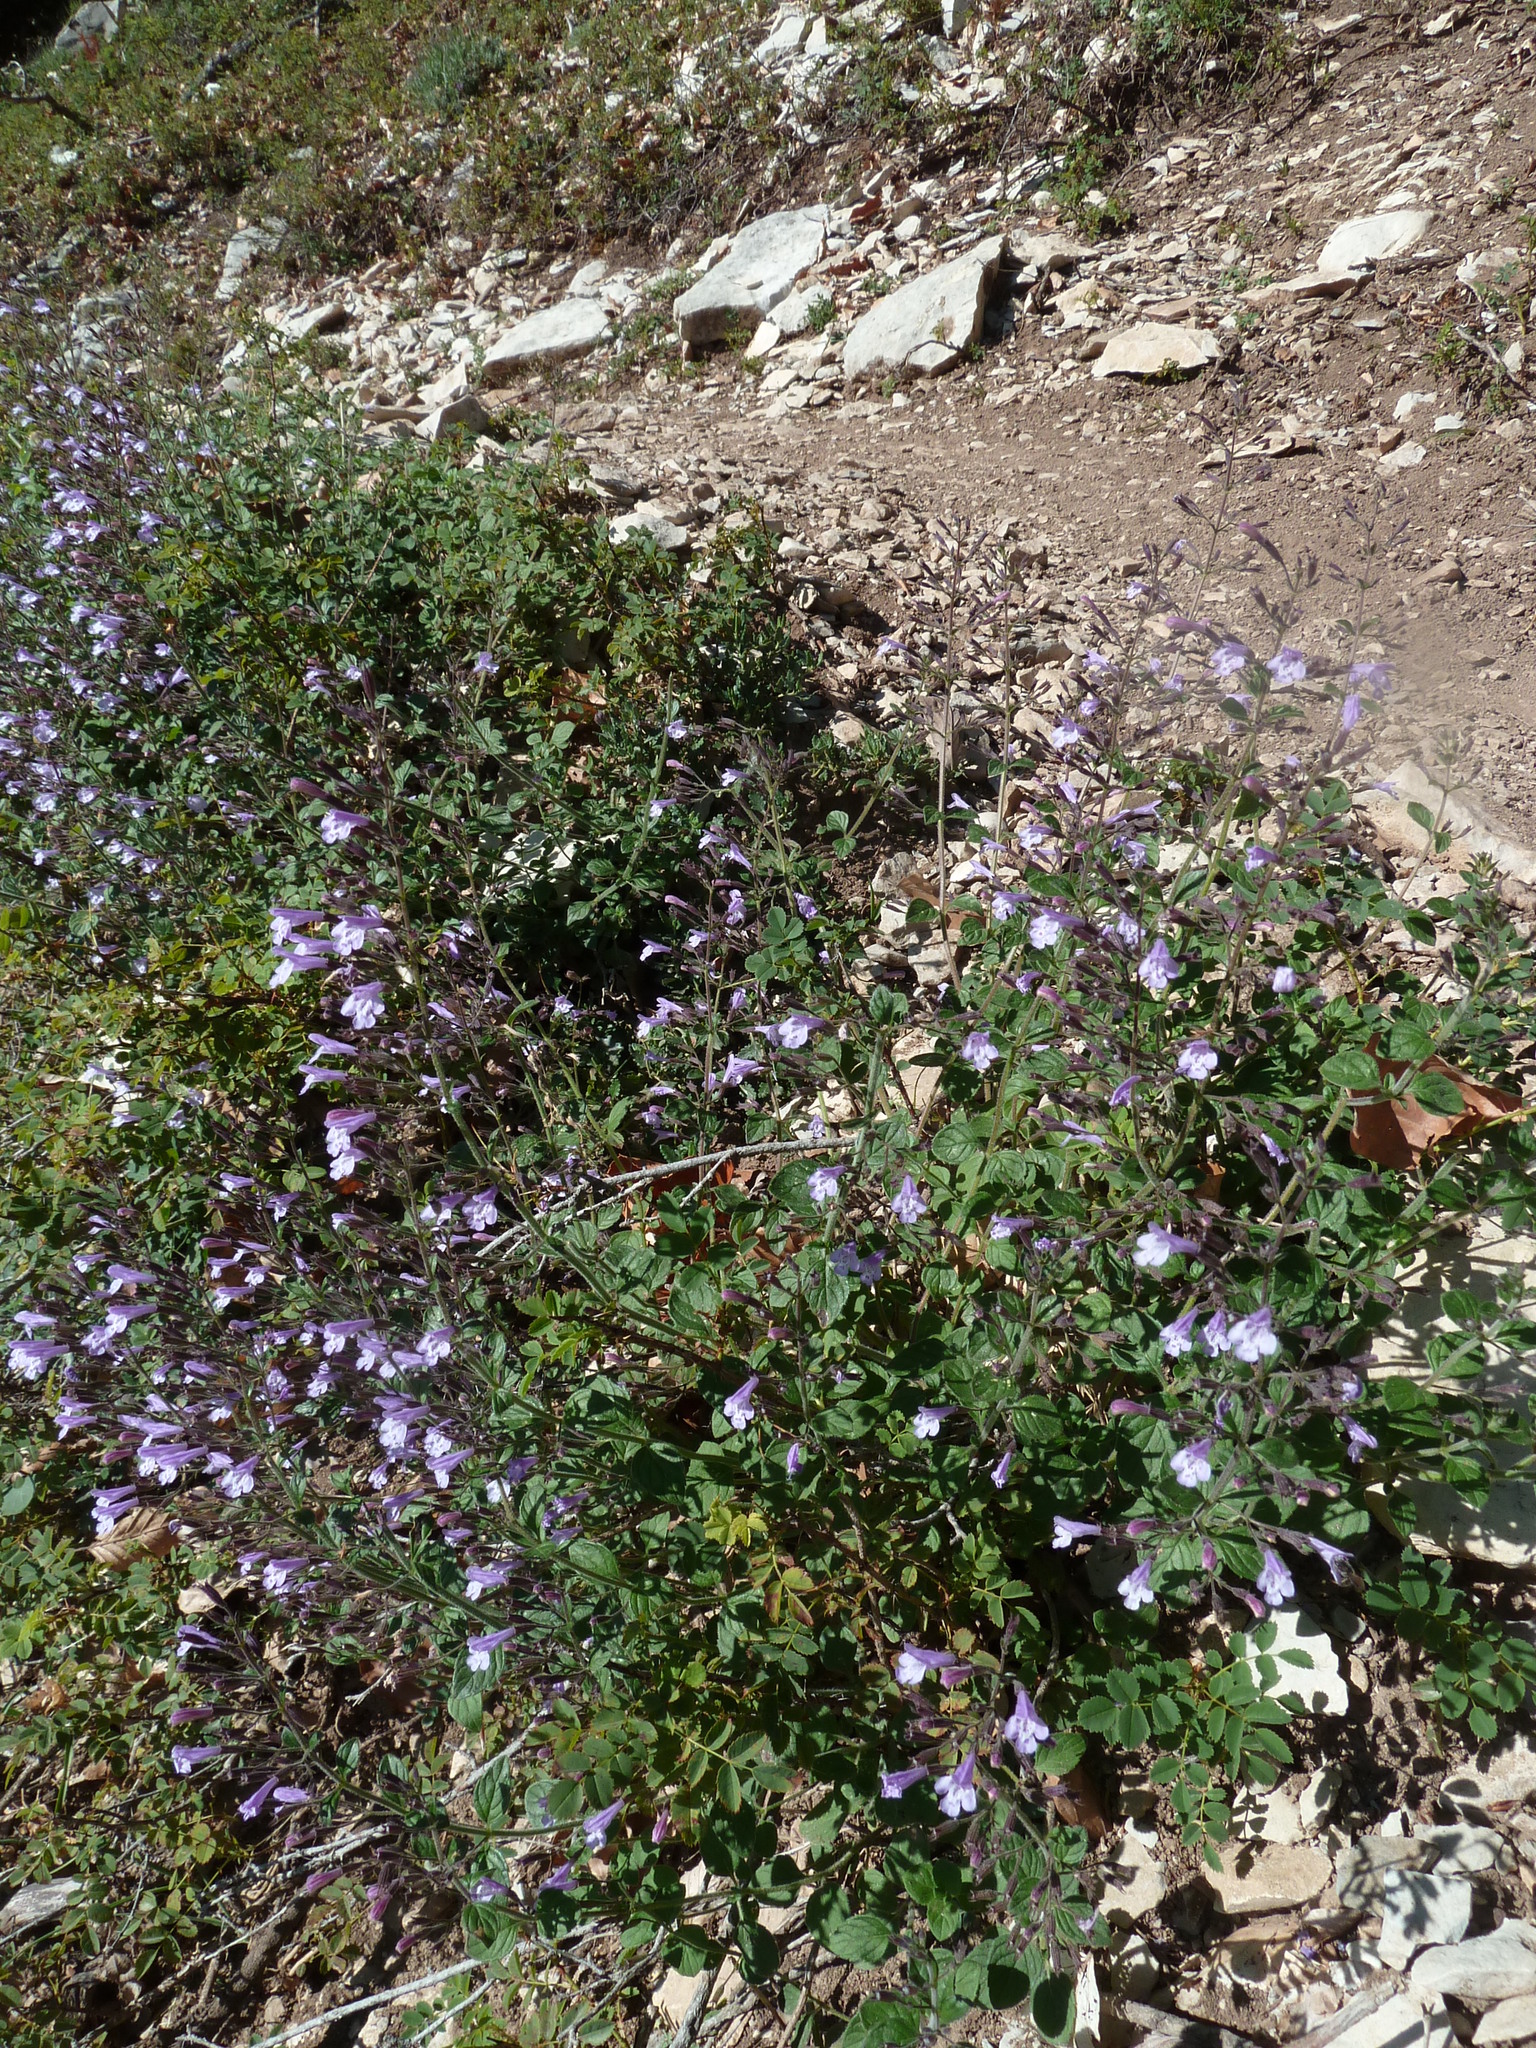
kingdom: Plantae
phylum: Tracheophyta
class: Magnoliopsida
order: Lamiales
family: Lamiaceae
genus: Clinopodium
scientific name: Clinopodium nepeta
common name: Lesser calamint
